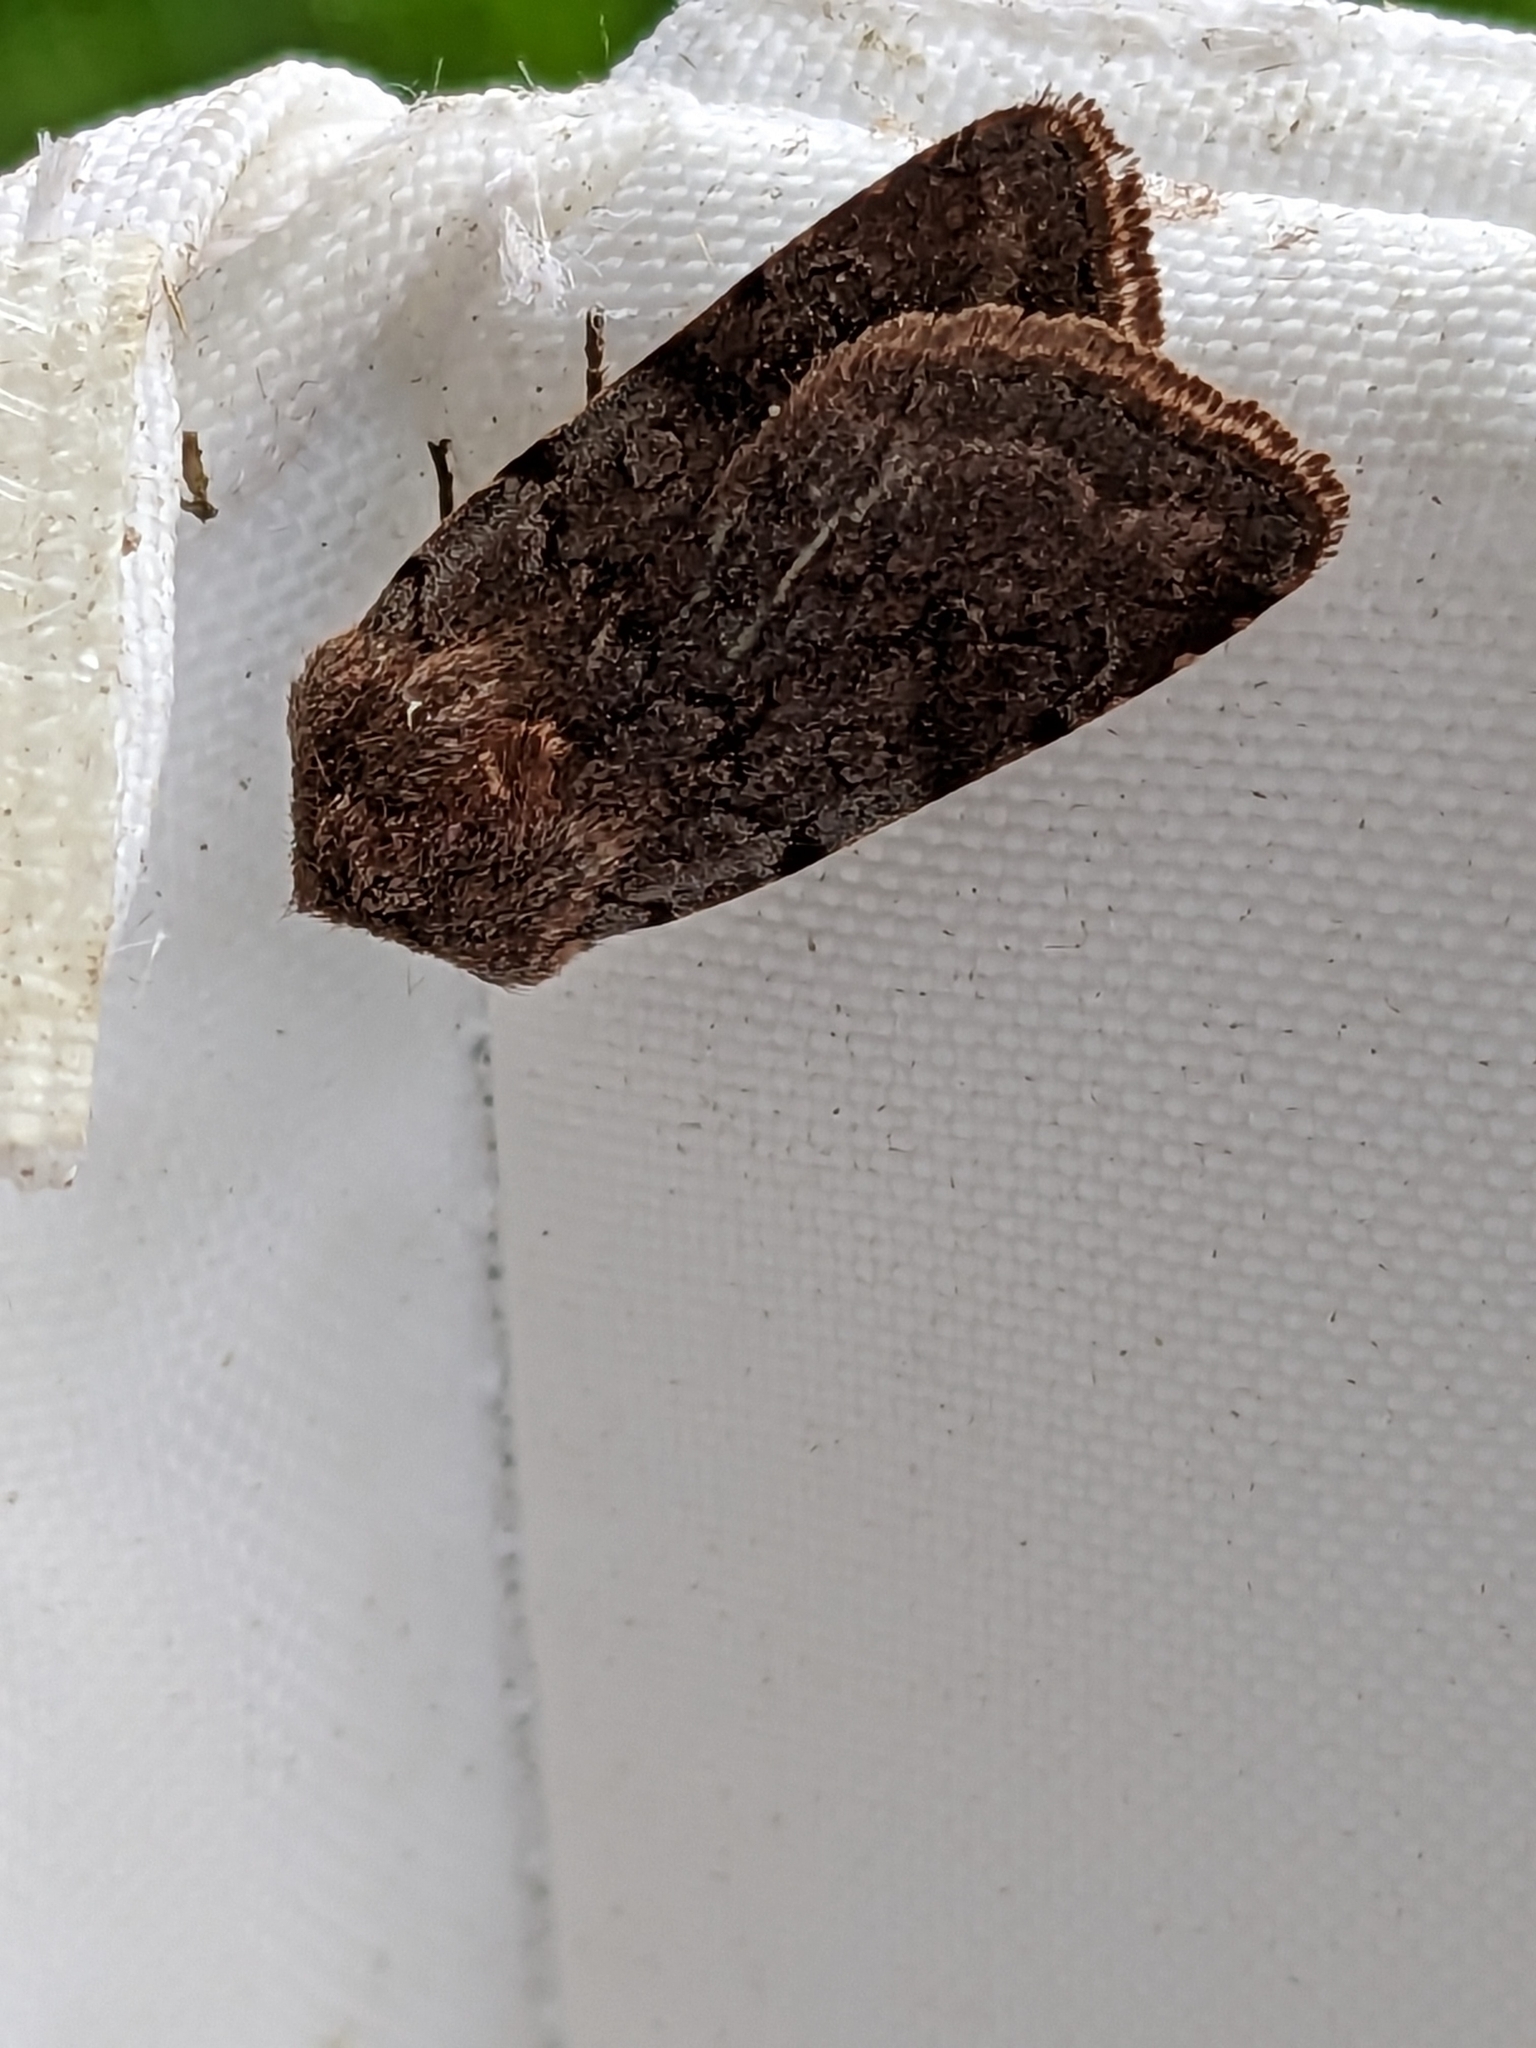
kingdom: Animalia
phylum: Arthropoda
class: Insecta
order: Lepidoptera
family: Noctuidae
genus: Cerastis
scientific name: Cerastis rubricosa
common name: Red chestnut
